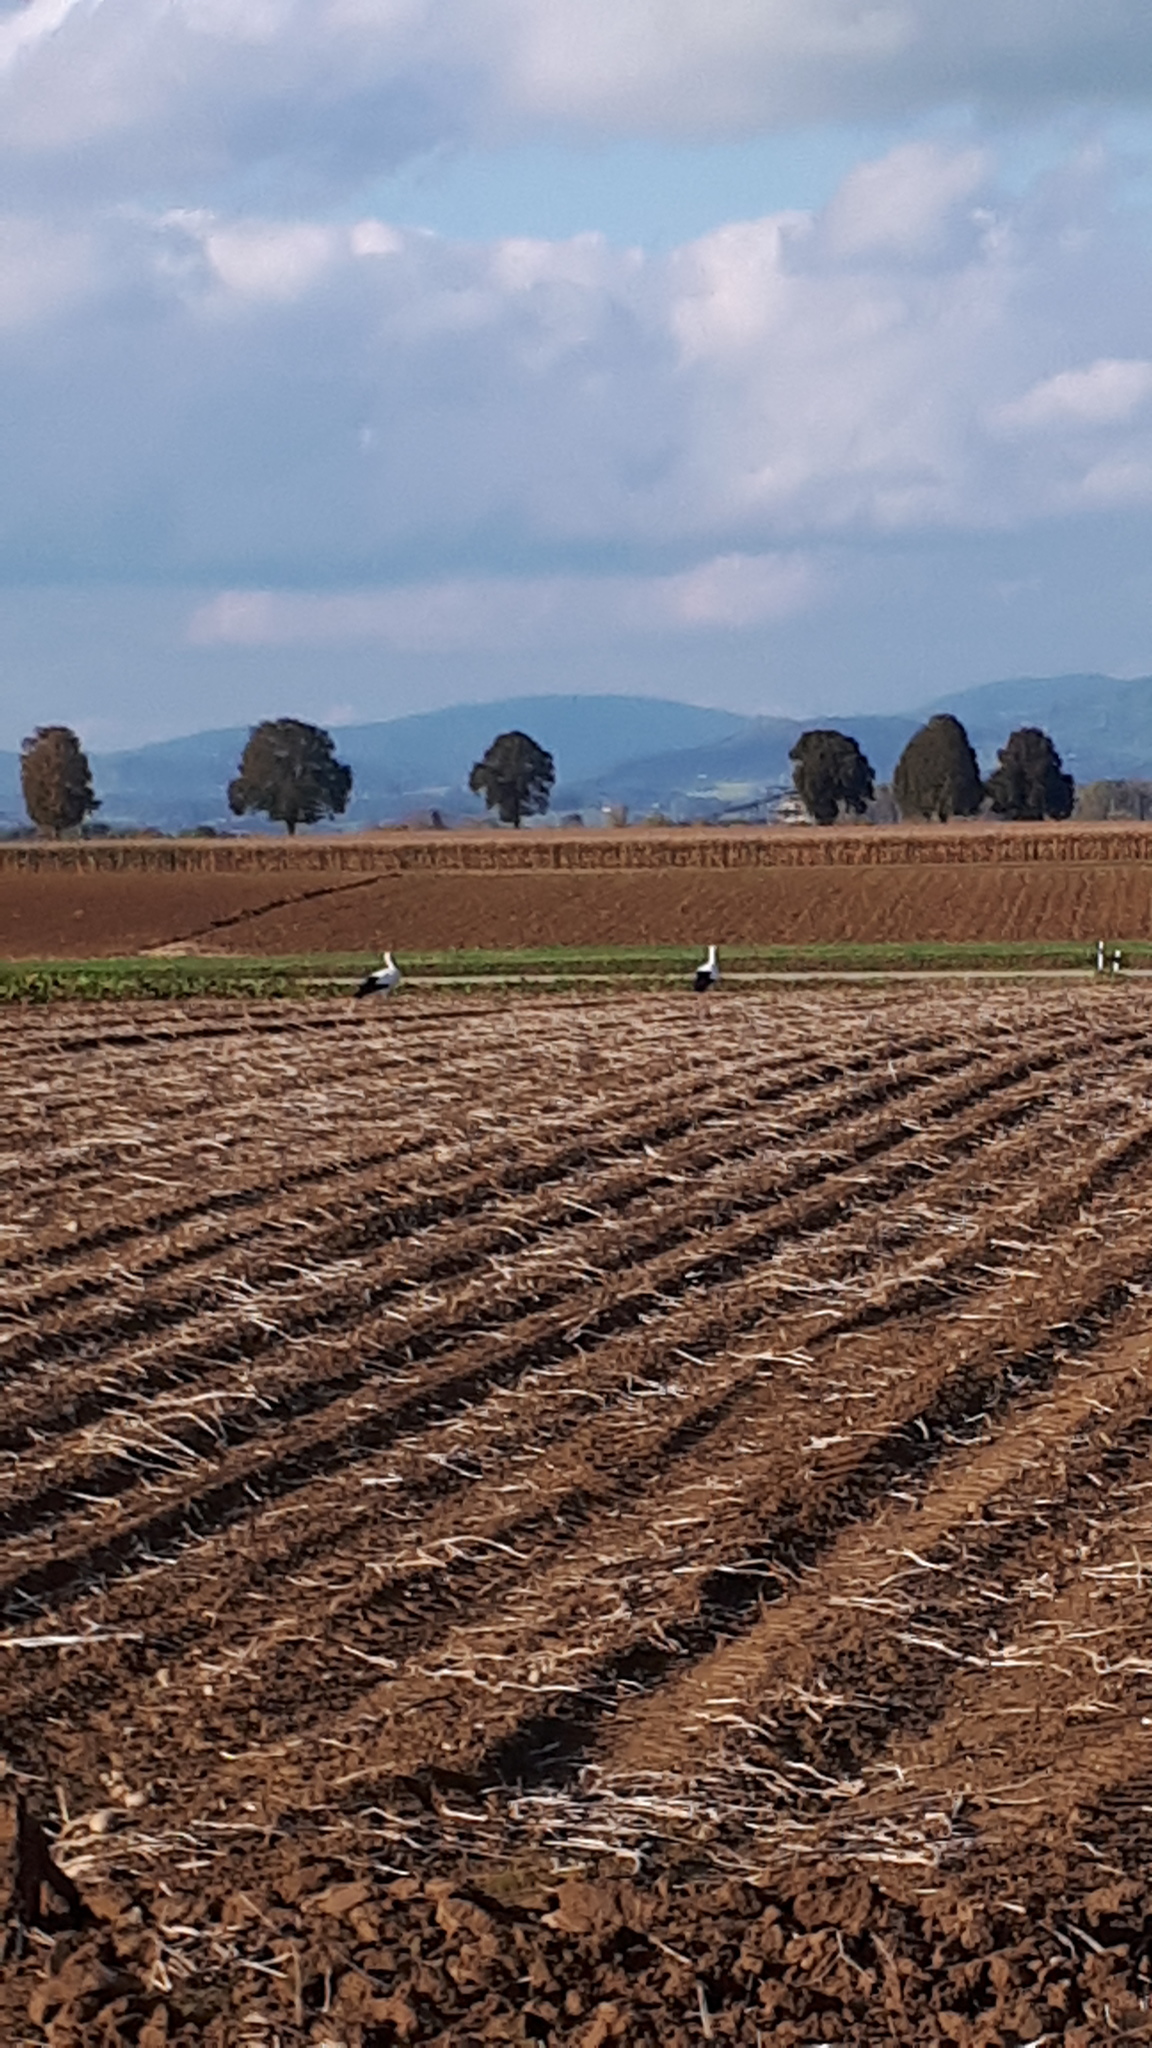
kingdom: Animalia
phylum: Chordata
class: Aves
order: Ciconiiformes
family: Ciconiidae
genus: Ciconia
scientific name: Ciconia ciconia
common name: White stork
